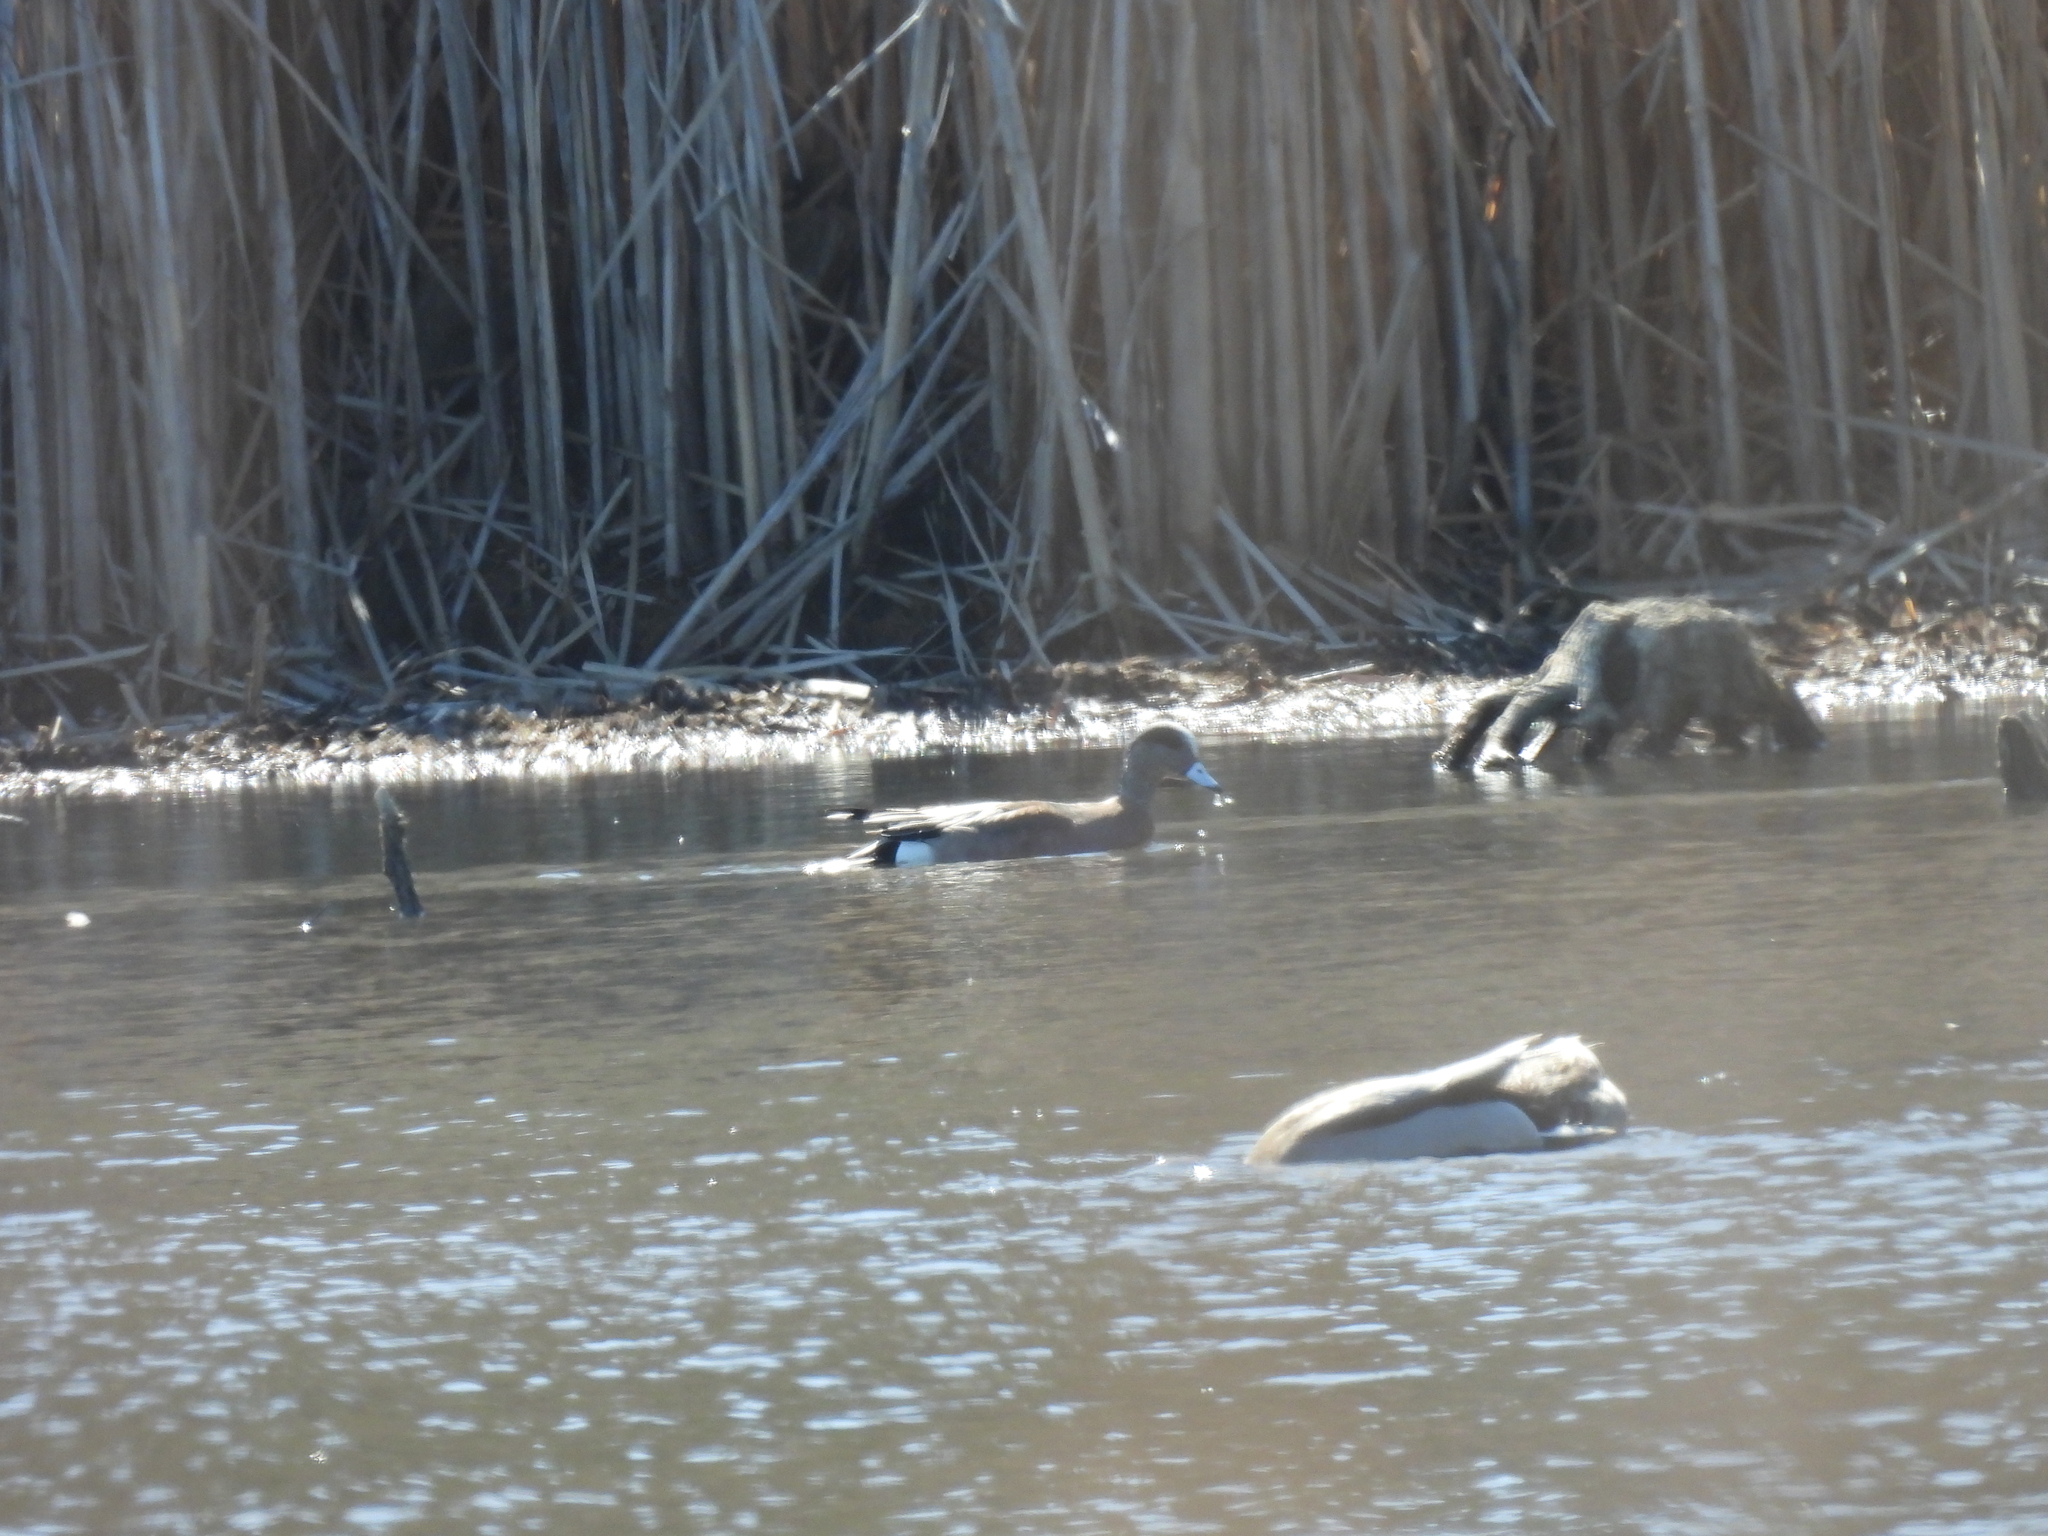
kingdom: Animalia
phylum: Chordata
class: Aves
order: Anseriformes
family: Anatidae
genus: Mareca
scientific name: Mareca americana
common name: American wigeon
